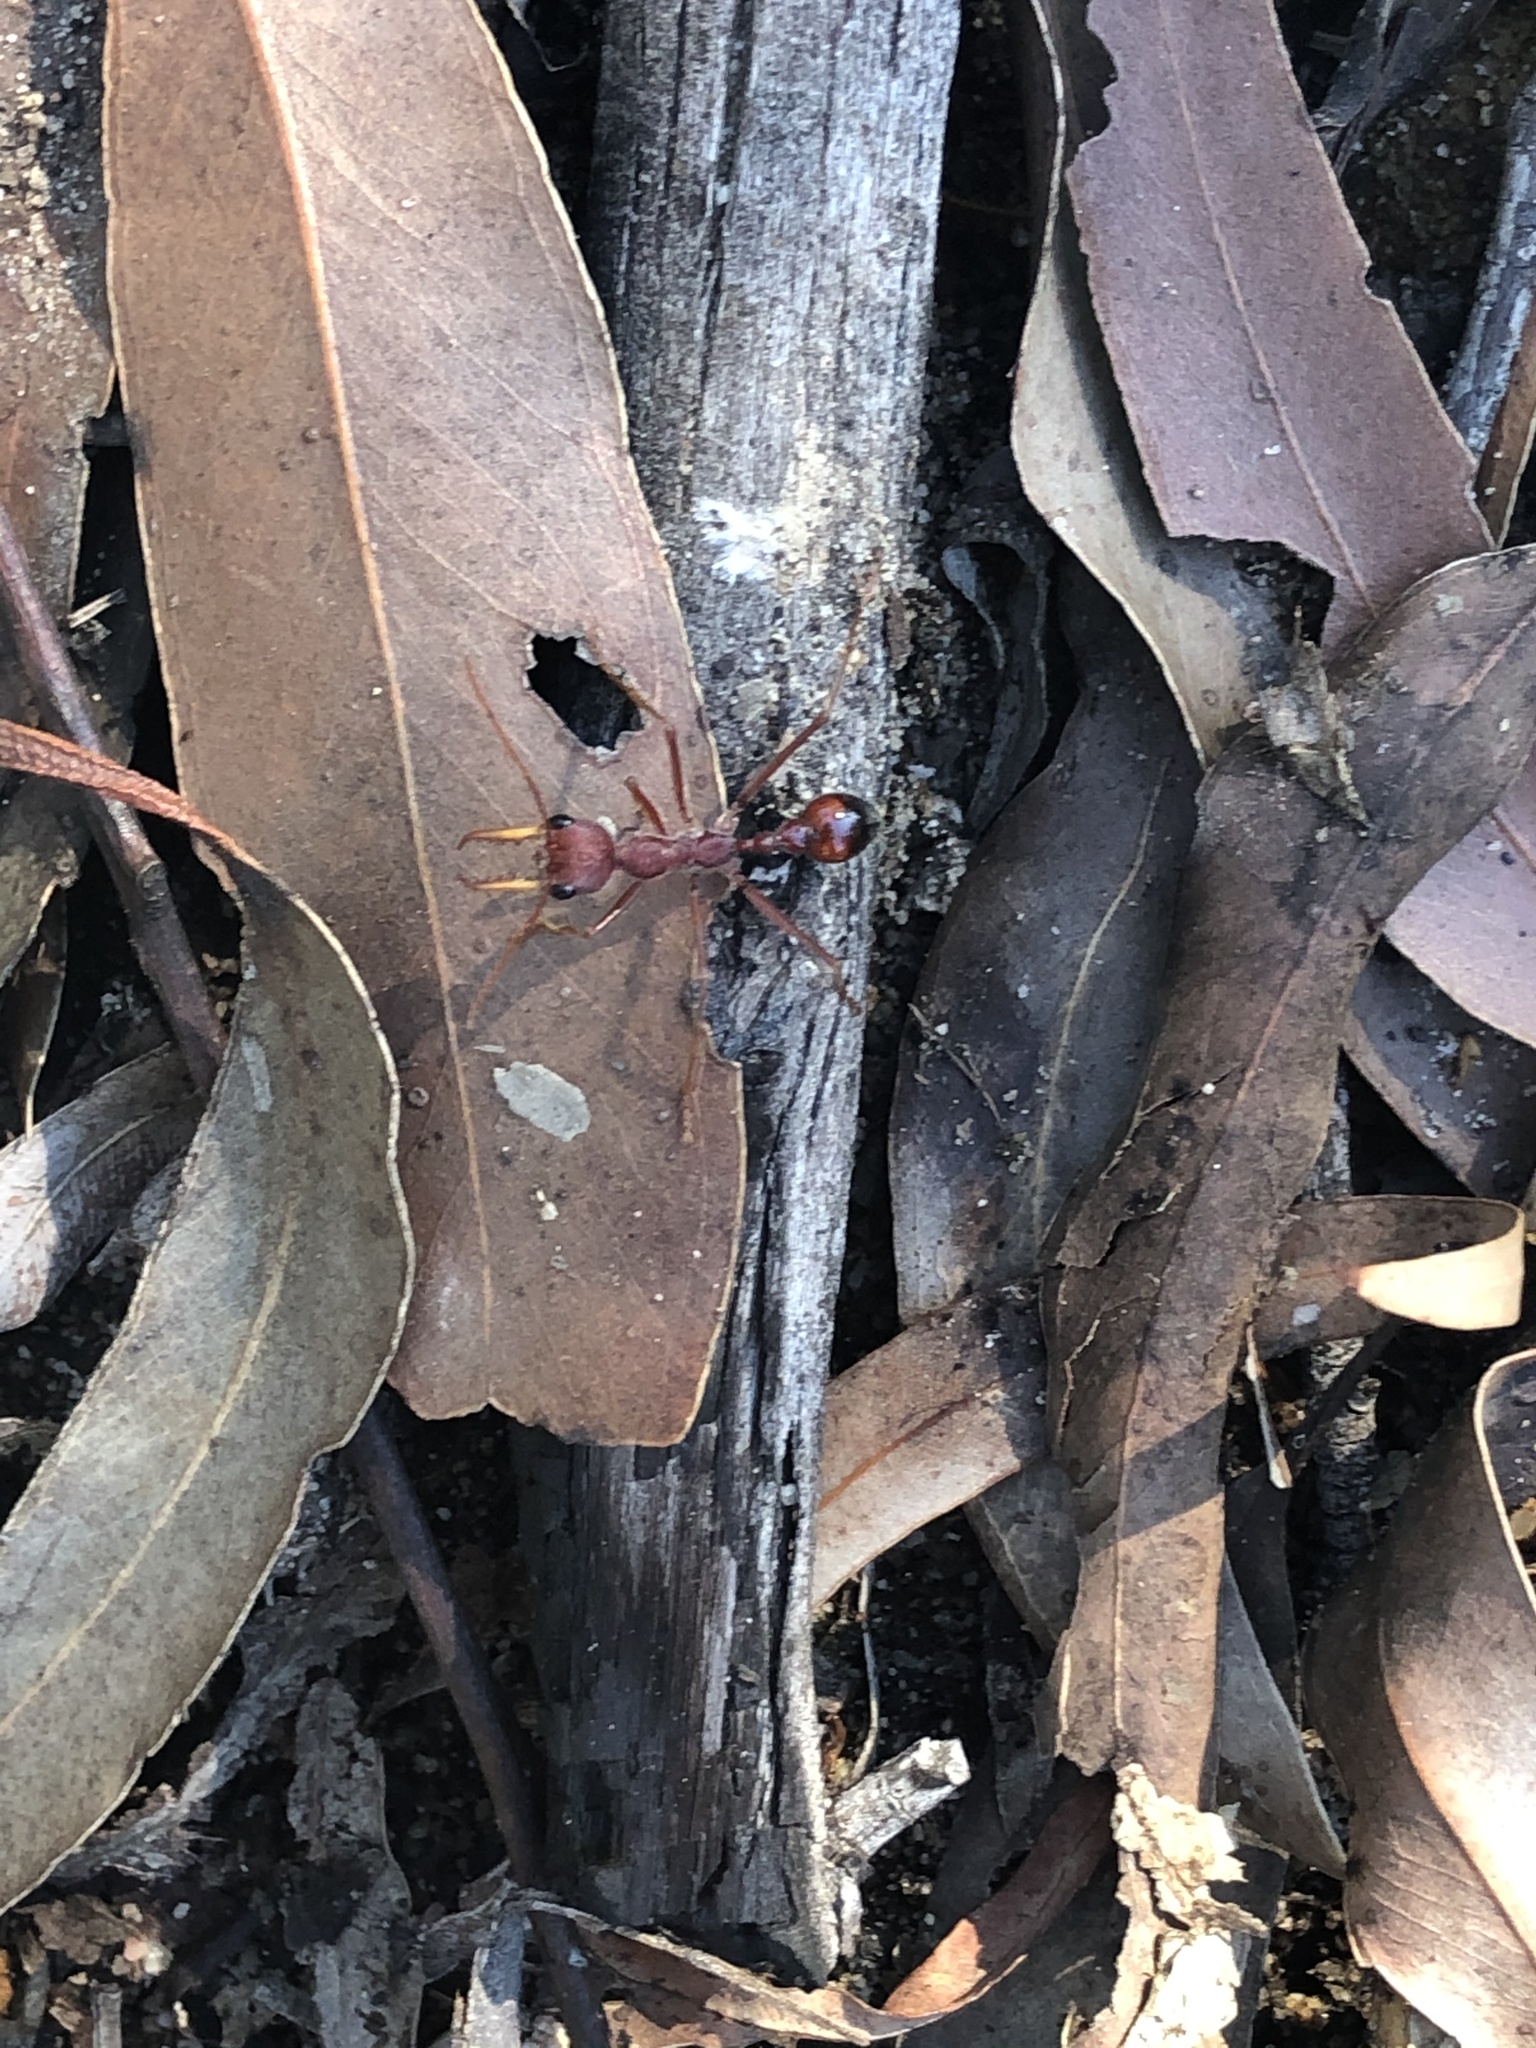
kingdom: Animalia
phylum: Arthropoda
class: Insecta
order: Hymenoptera
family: Formicidae
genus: Myrmecia
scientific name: Myrmecia gulosa
